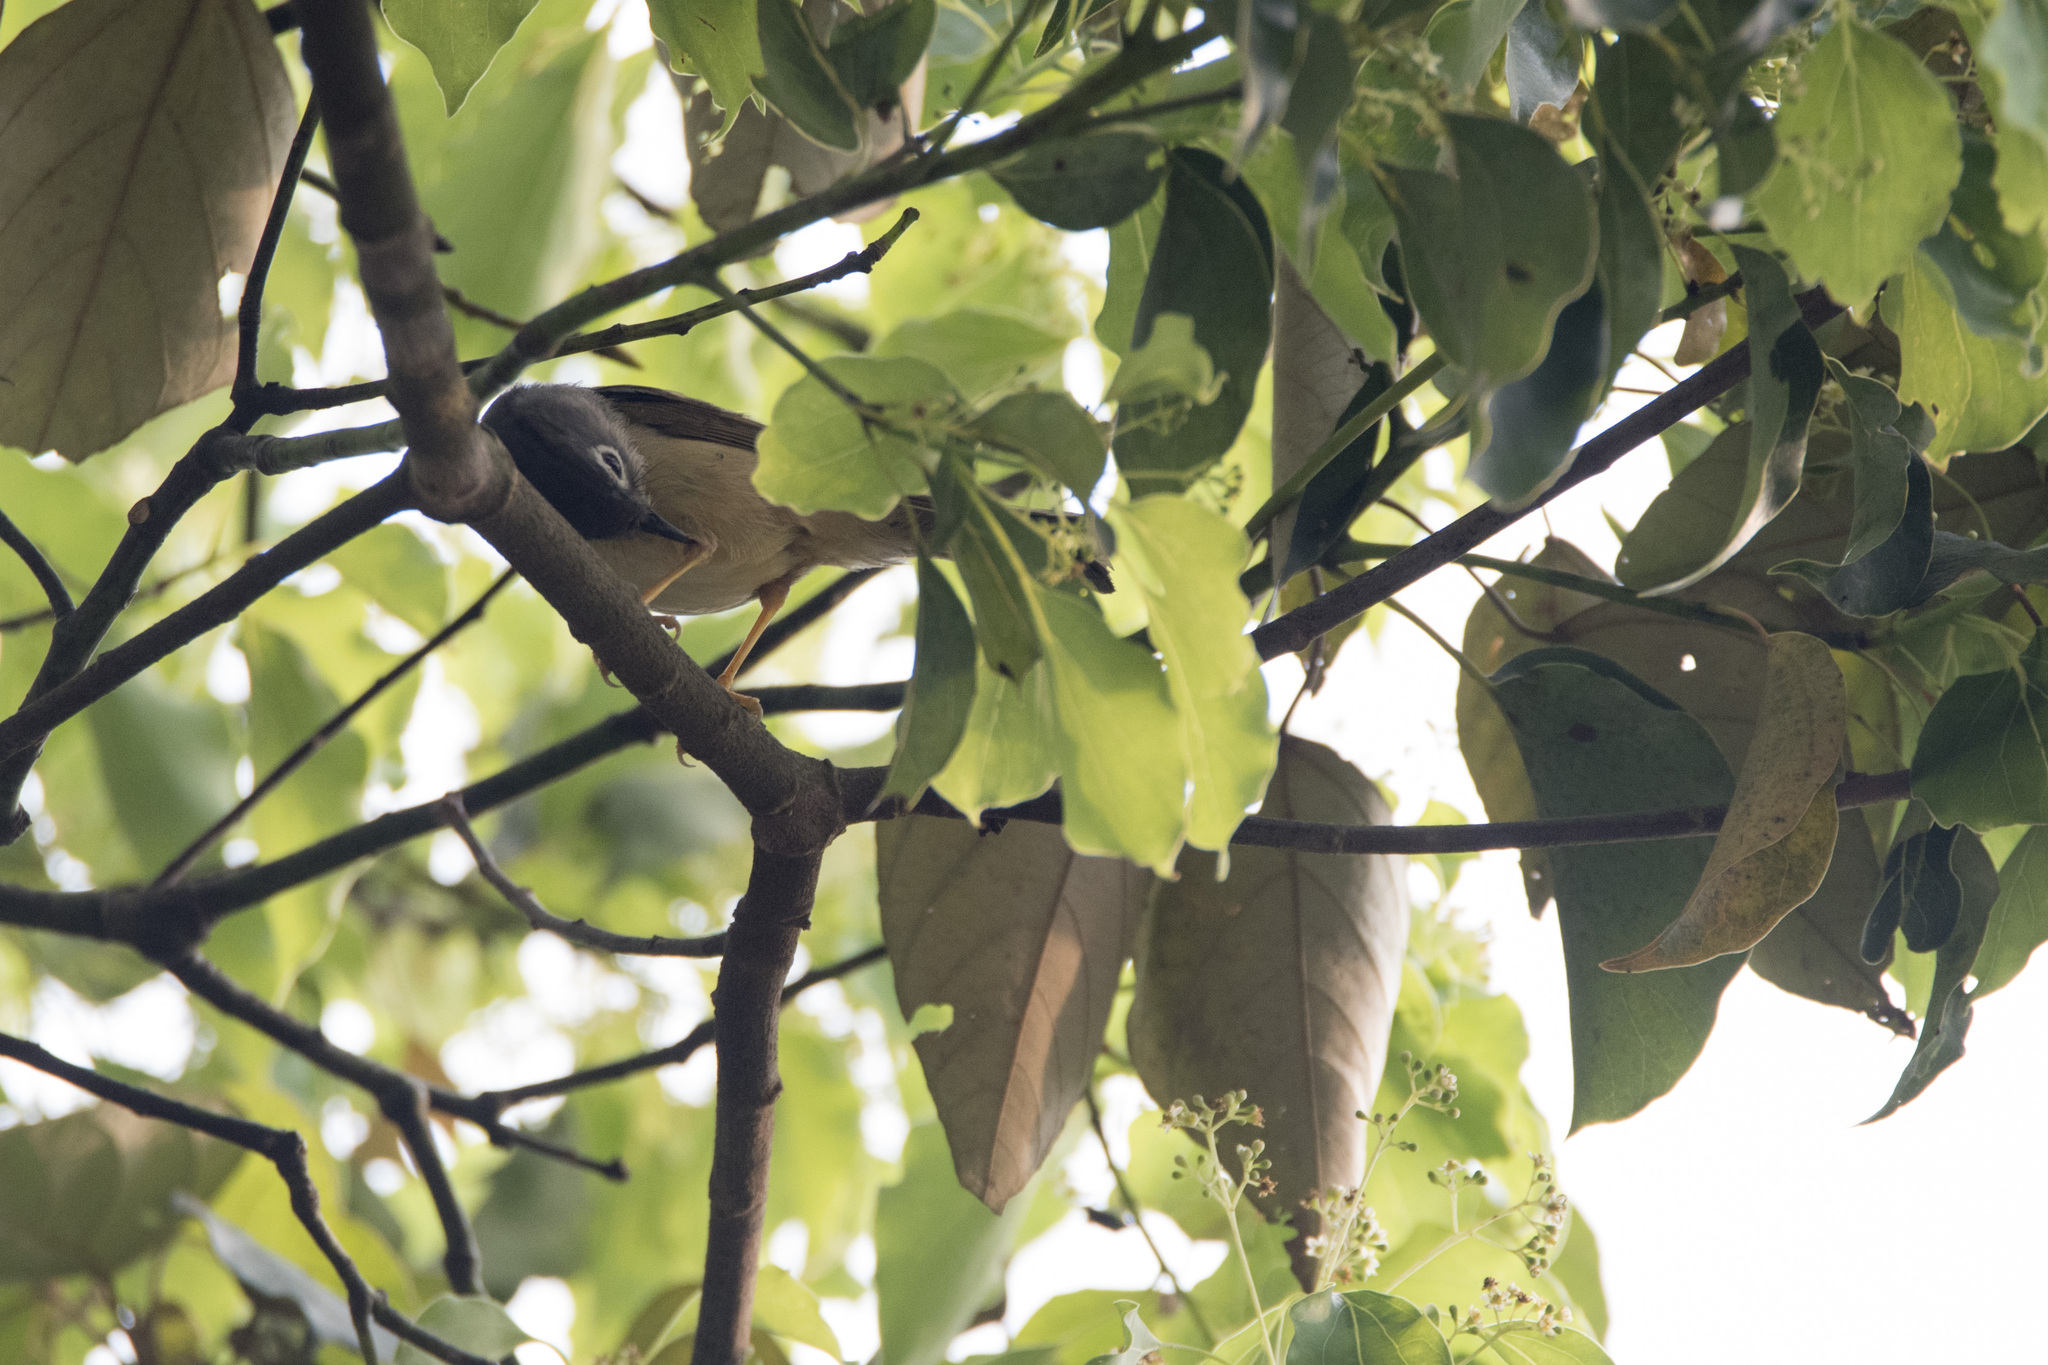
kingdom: Animalia
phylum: Chordata
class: Aves
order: Passeriformes
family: Pellorneidae
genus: Alcippe
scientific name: Alcippe morrisonia
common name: Grey-cheeked fulvetta
